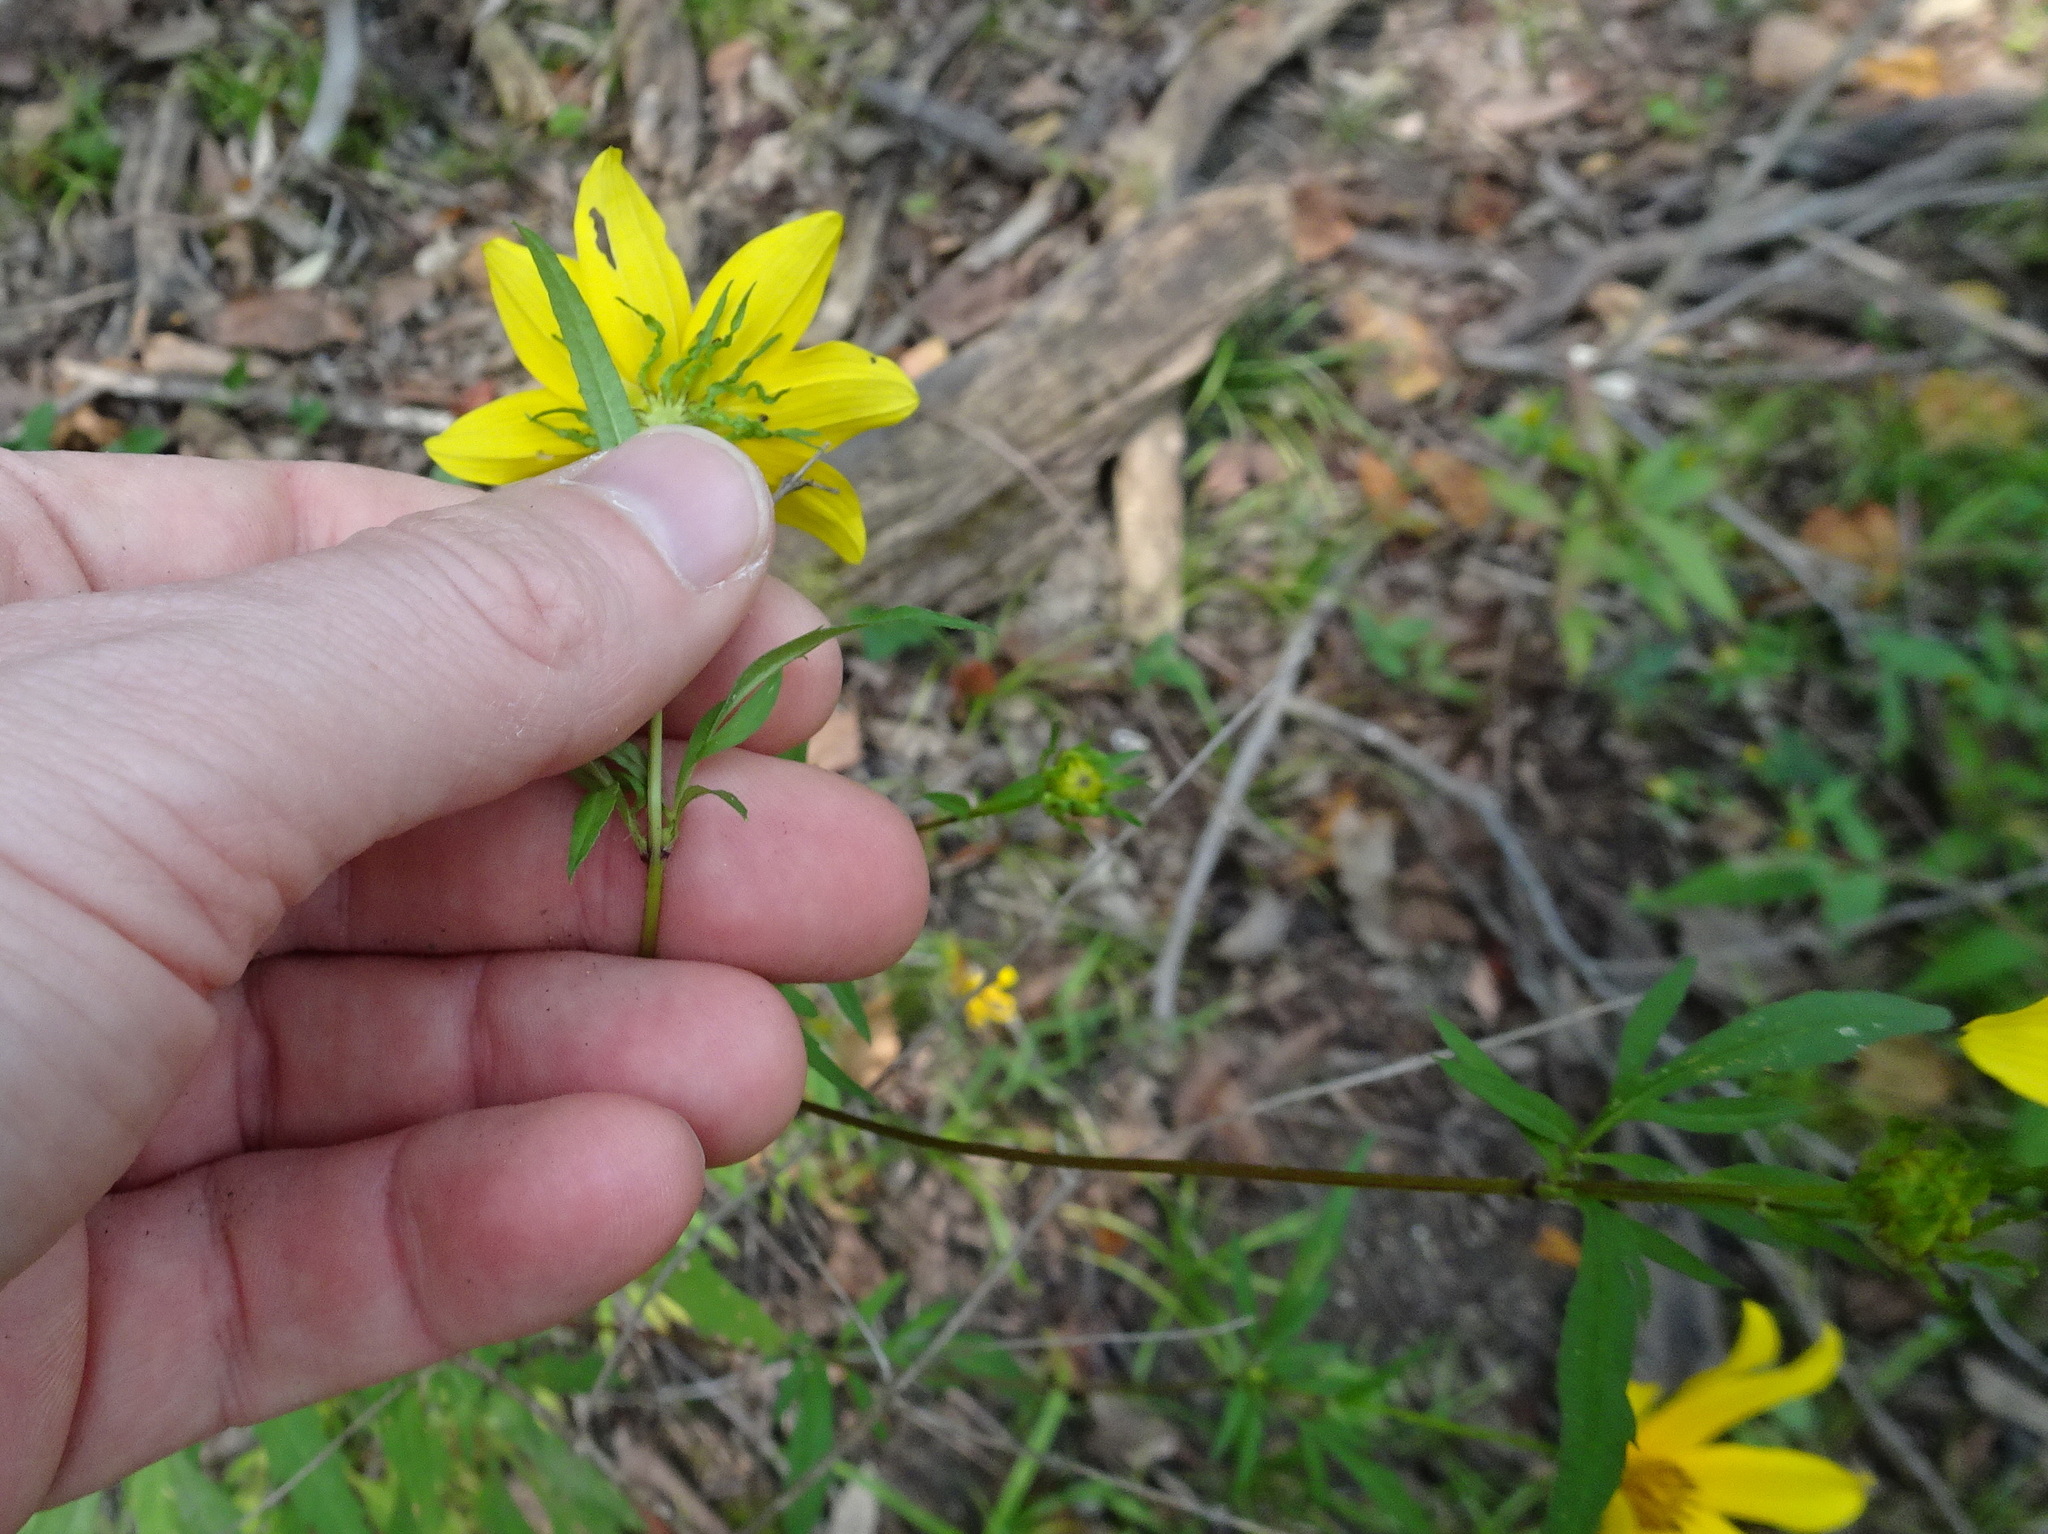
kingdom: Plantae
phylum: Tracheophyta
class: Magnoliopsida
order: Asterales
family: Asteraceae
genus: Bidens
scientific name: Bidens polylepis
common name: Awnless beggarticks
